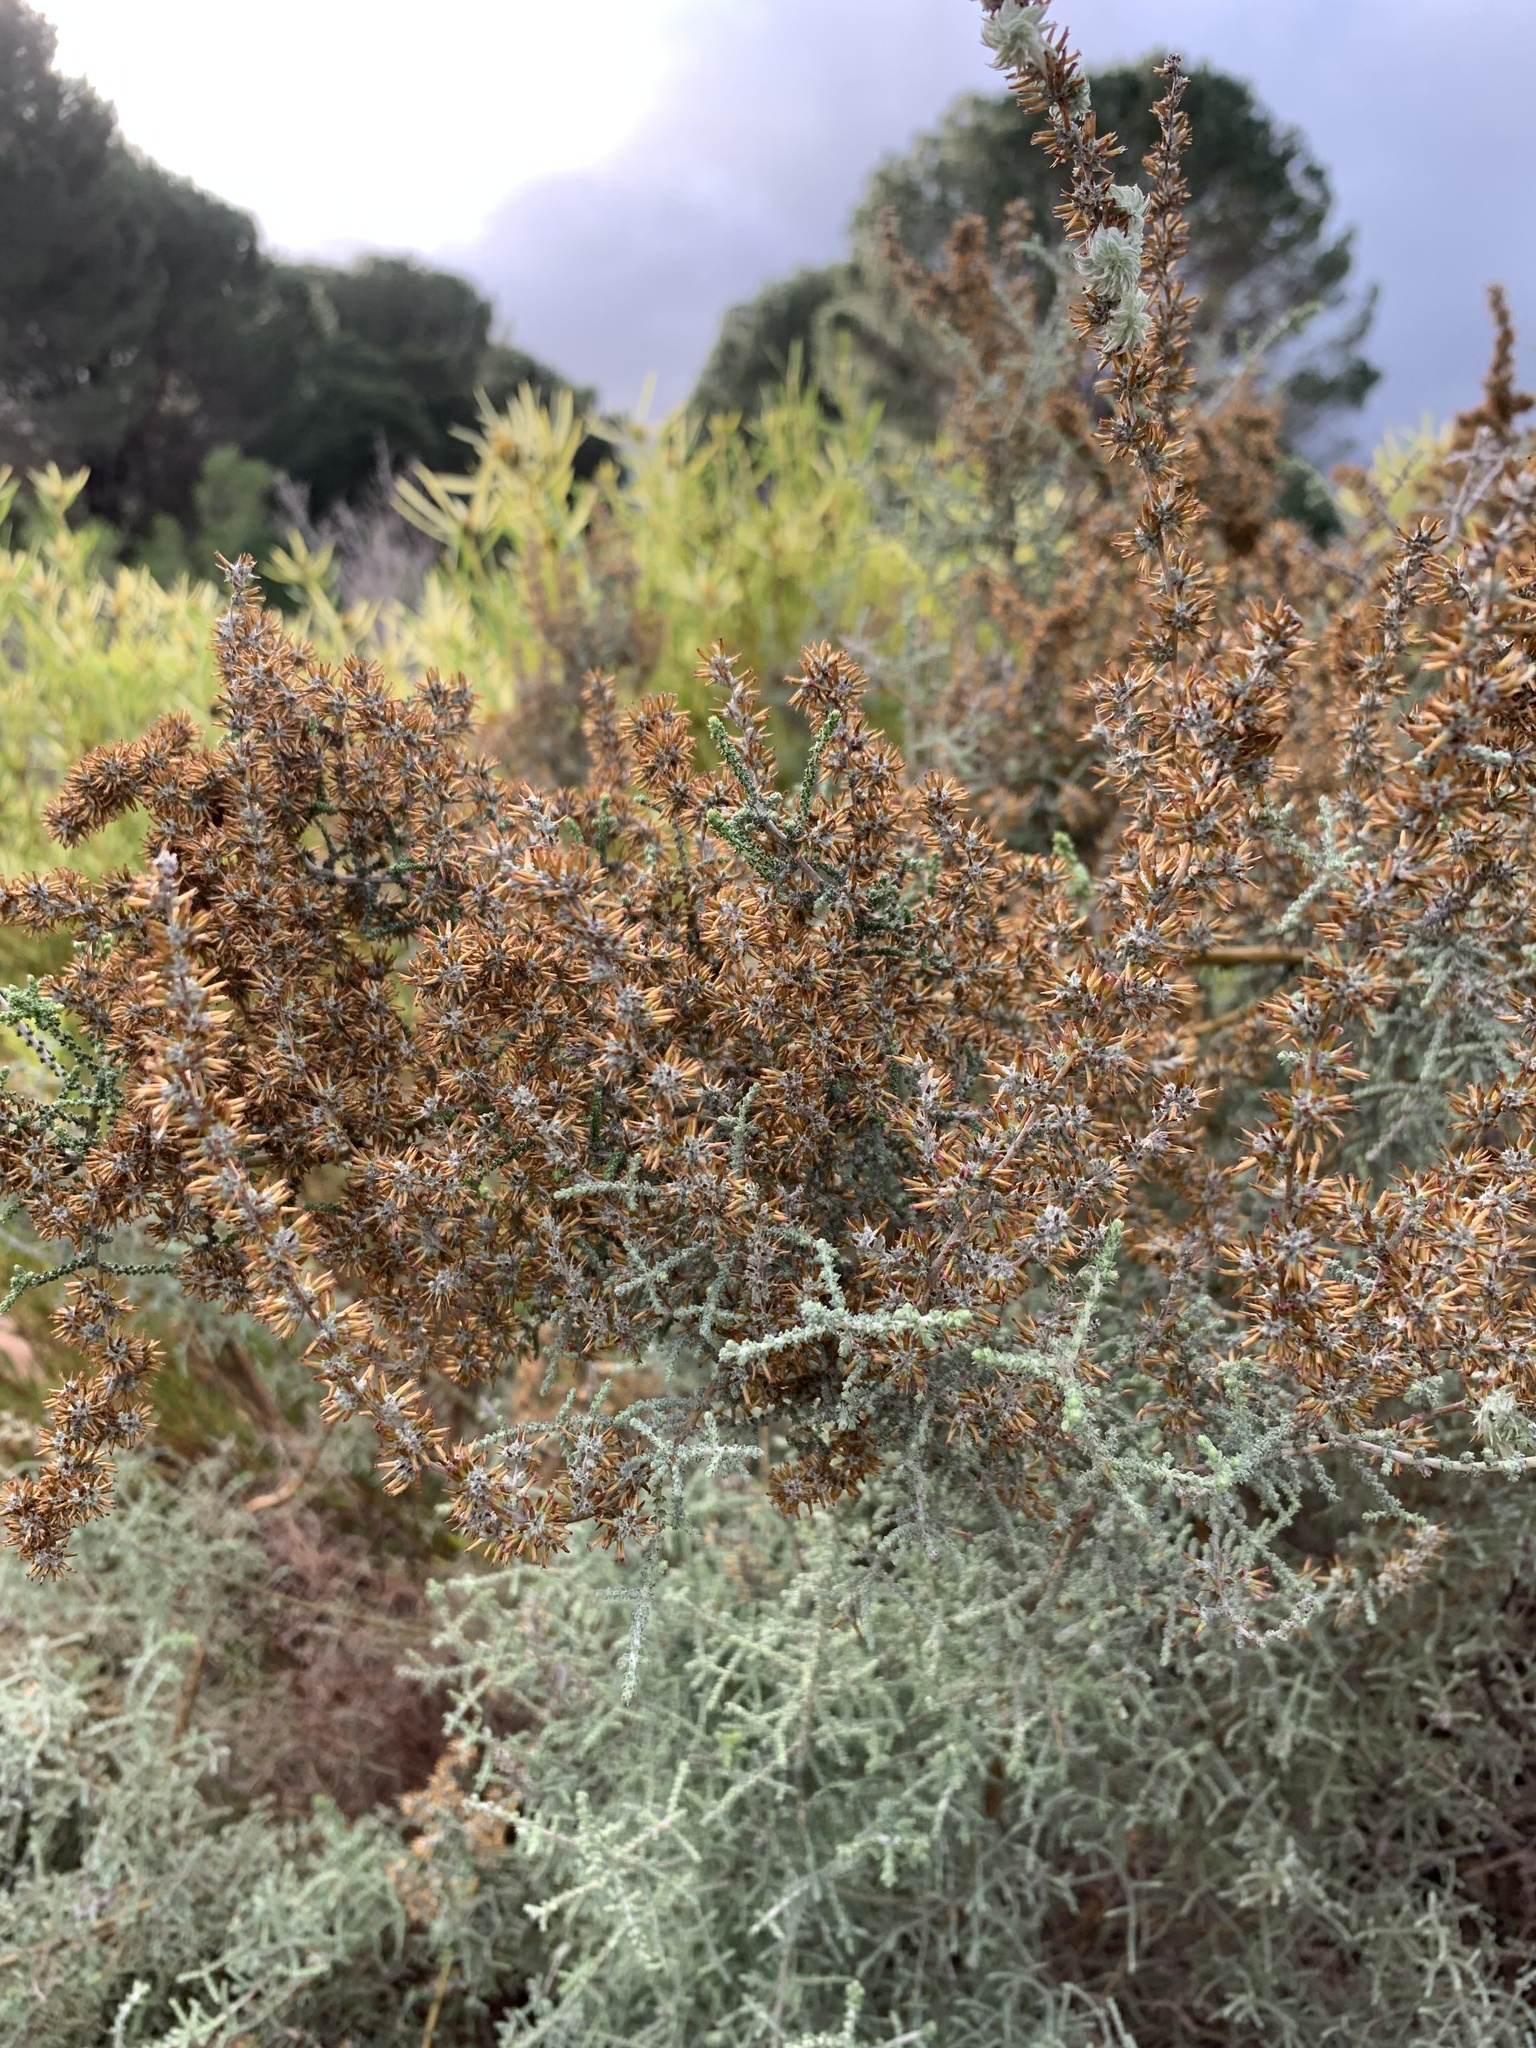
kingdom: Plantae
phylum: Tracheophyta
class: Magnoliopsida
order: Asterales
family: Asteraceae
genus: Seriphium
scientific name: Seriphium plumosum
